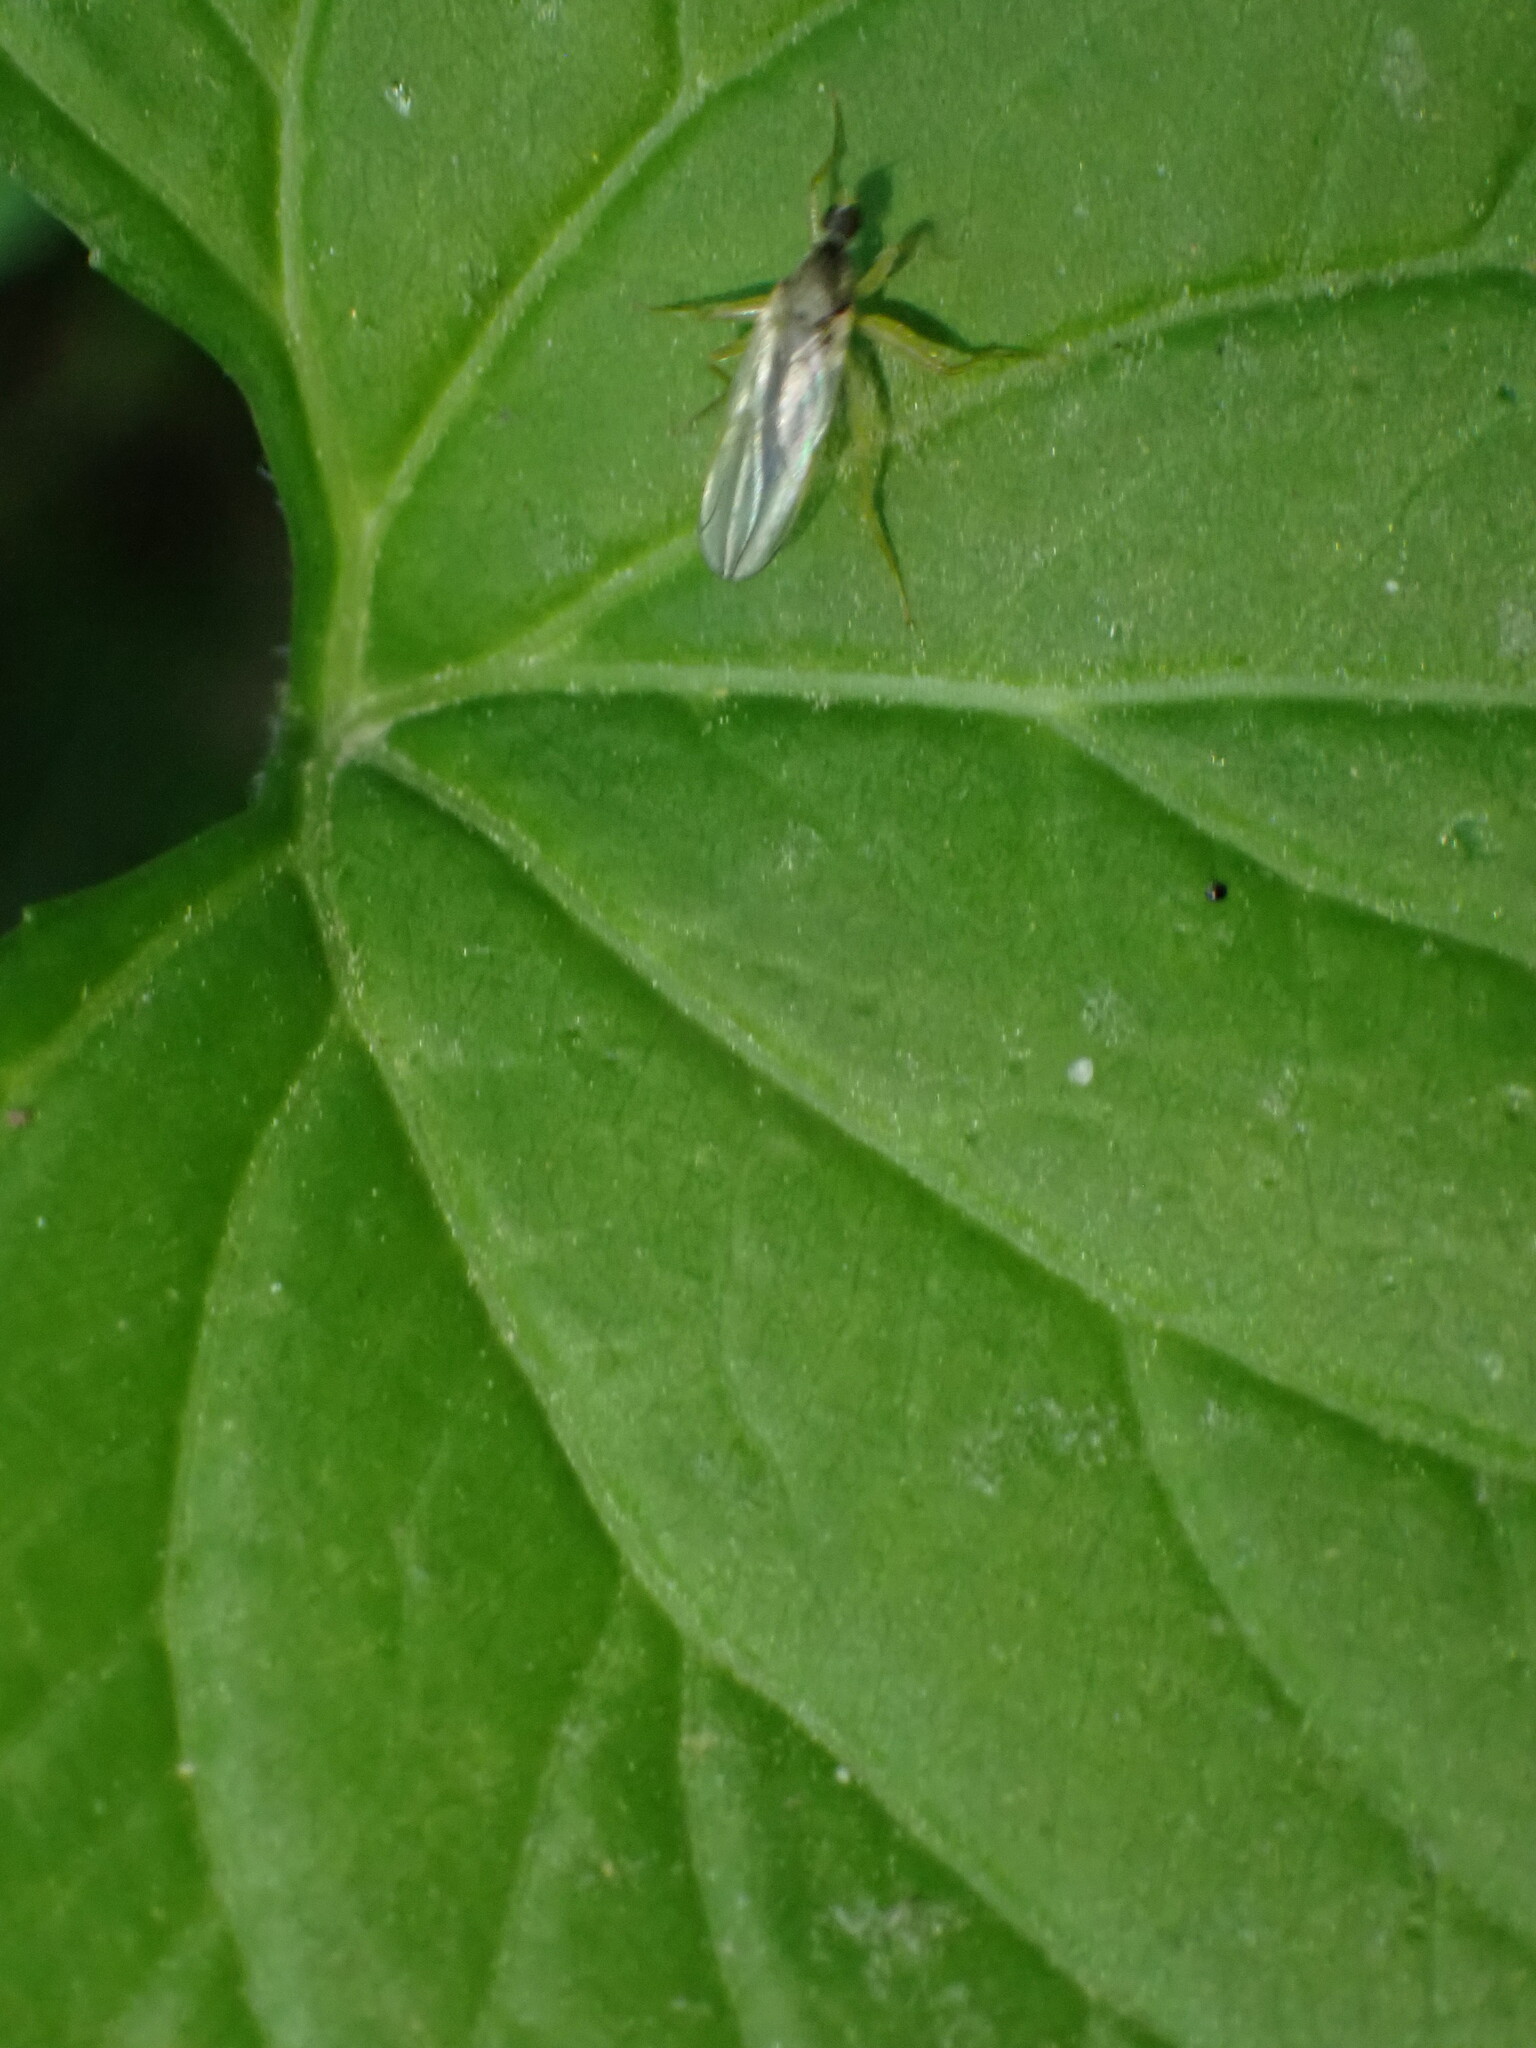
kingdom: Animalia
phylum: Arthropoda
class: Insecta
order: Diptera
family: Hybotidae
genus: Platypalpus
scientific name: Platypalpus
